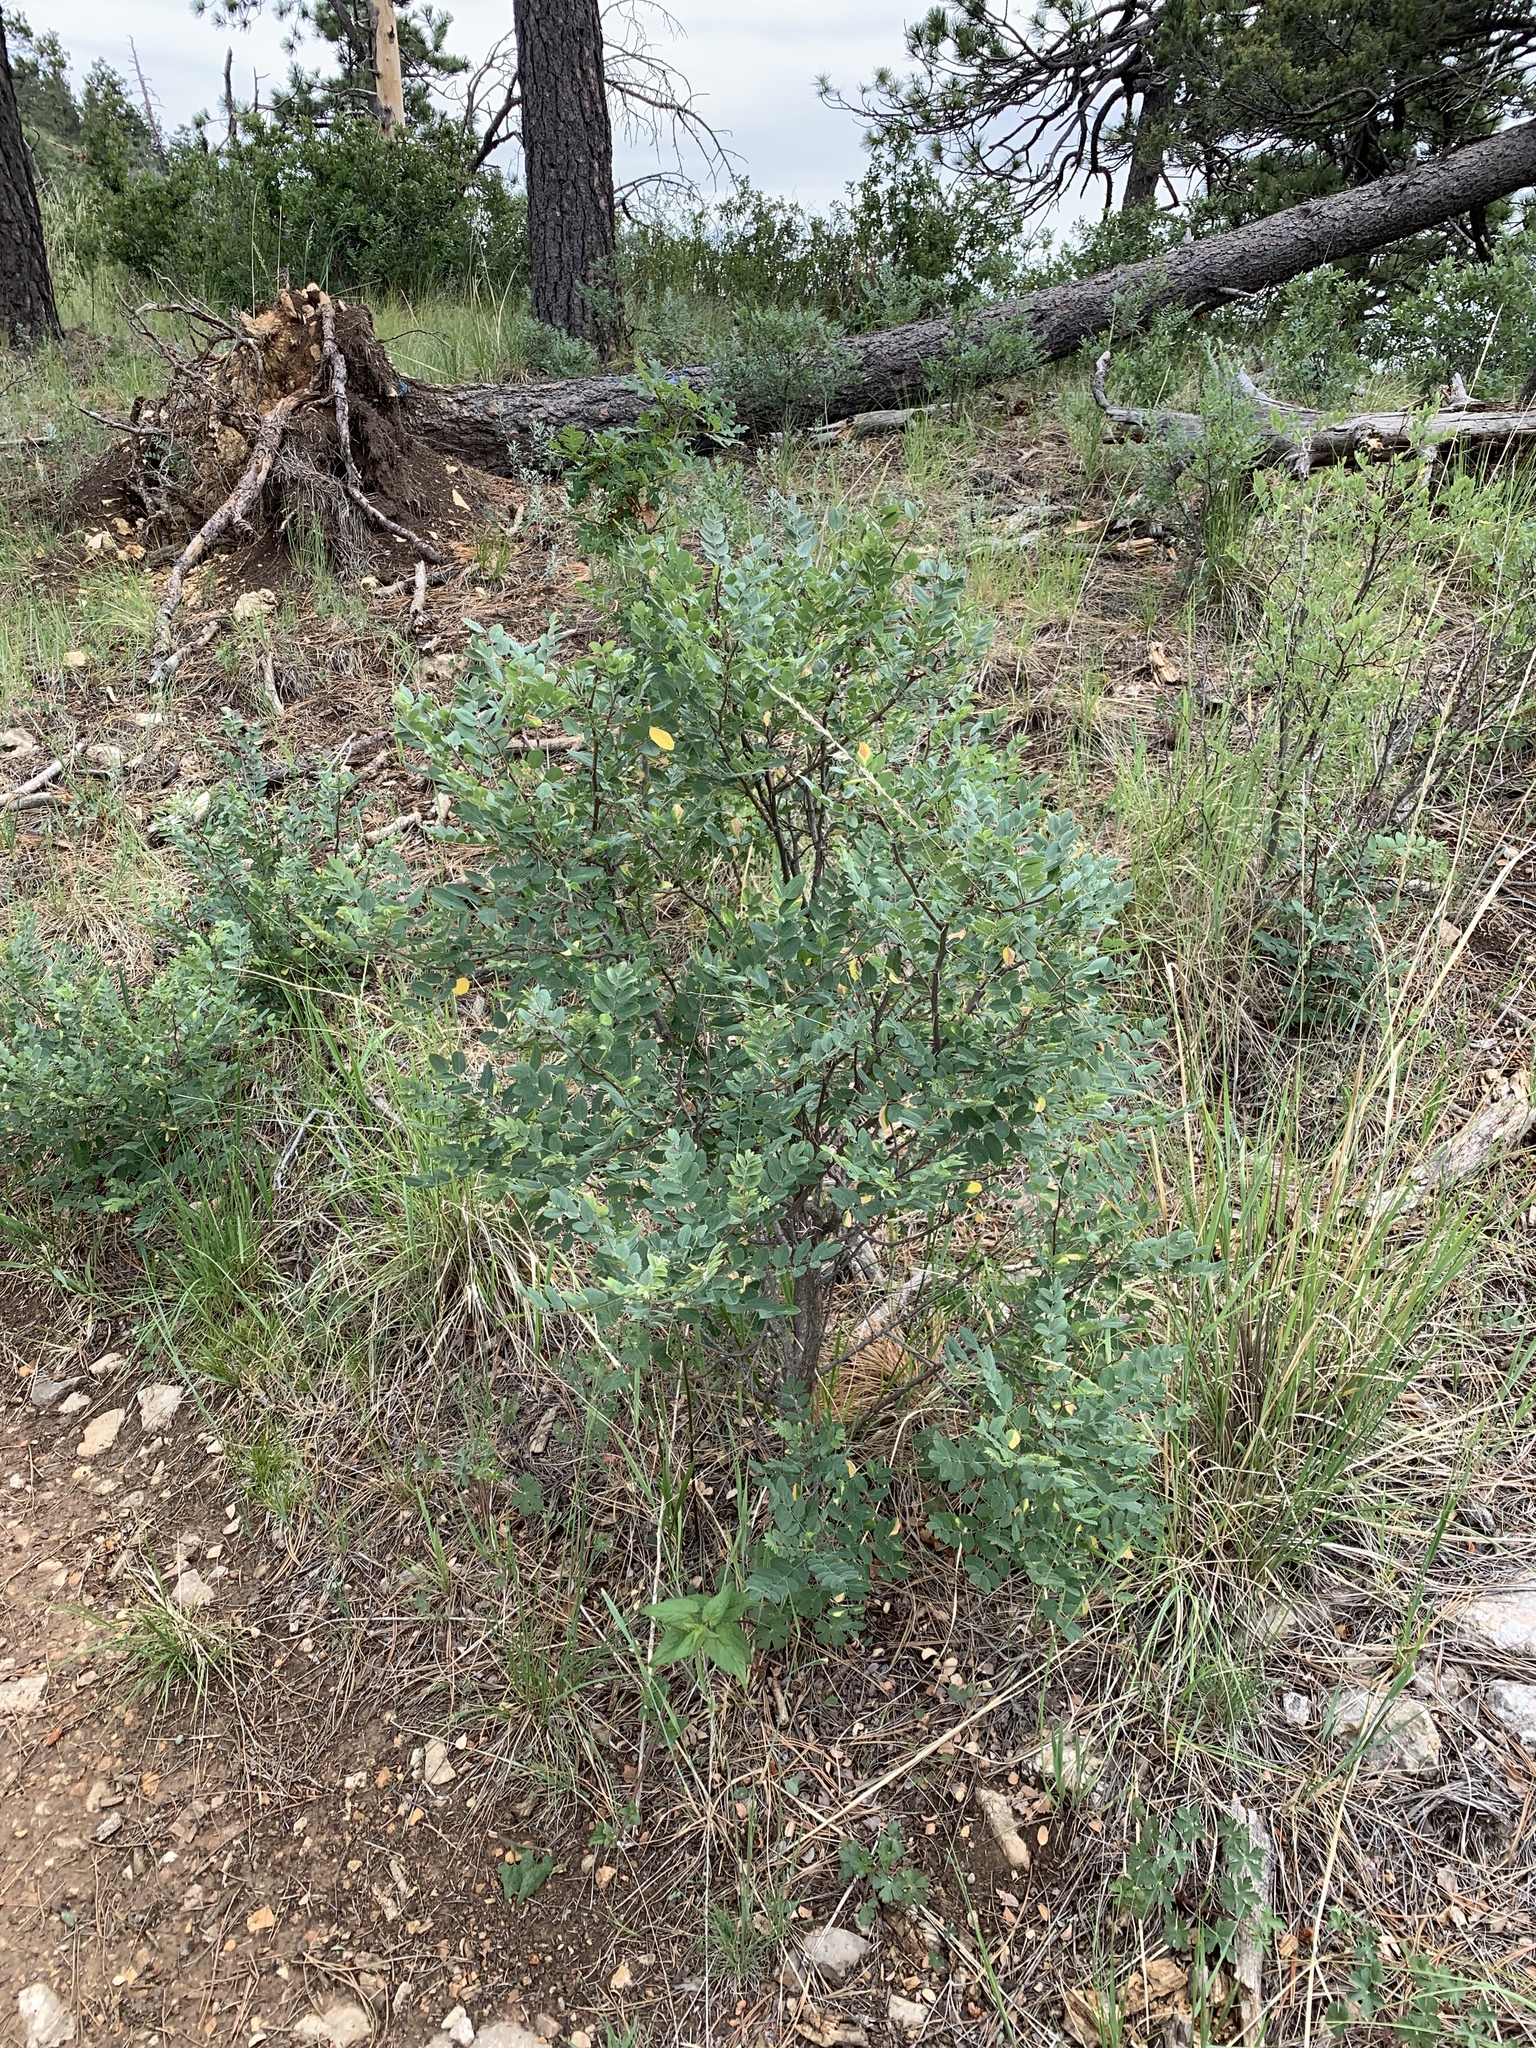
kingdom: Plantae
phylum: Tracheophyta
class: Magnoliopsida
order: Fagales
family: Fagaceae
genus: Quercus
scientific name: Quercus gambelii
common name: Gambel oak
